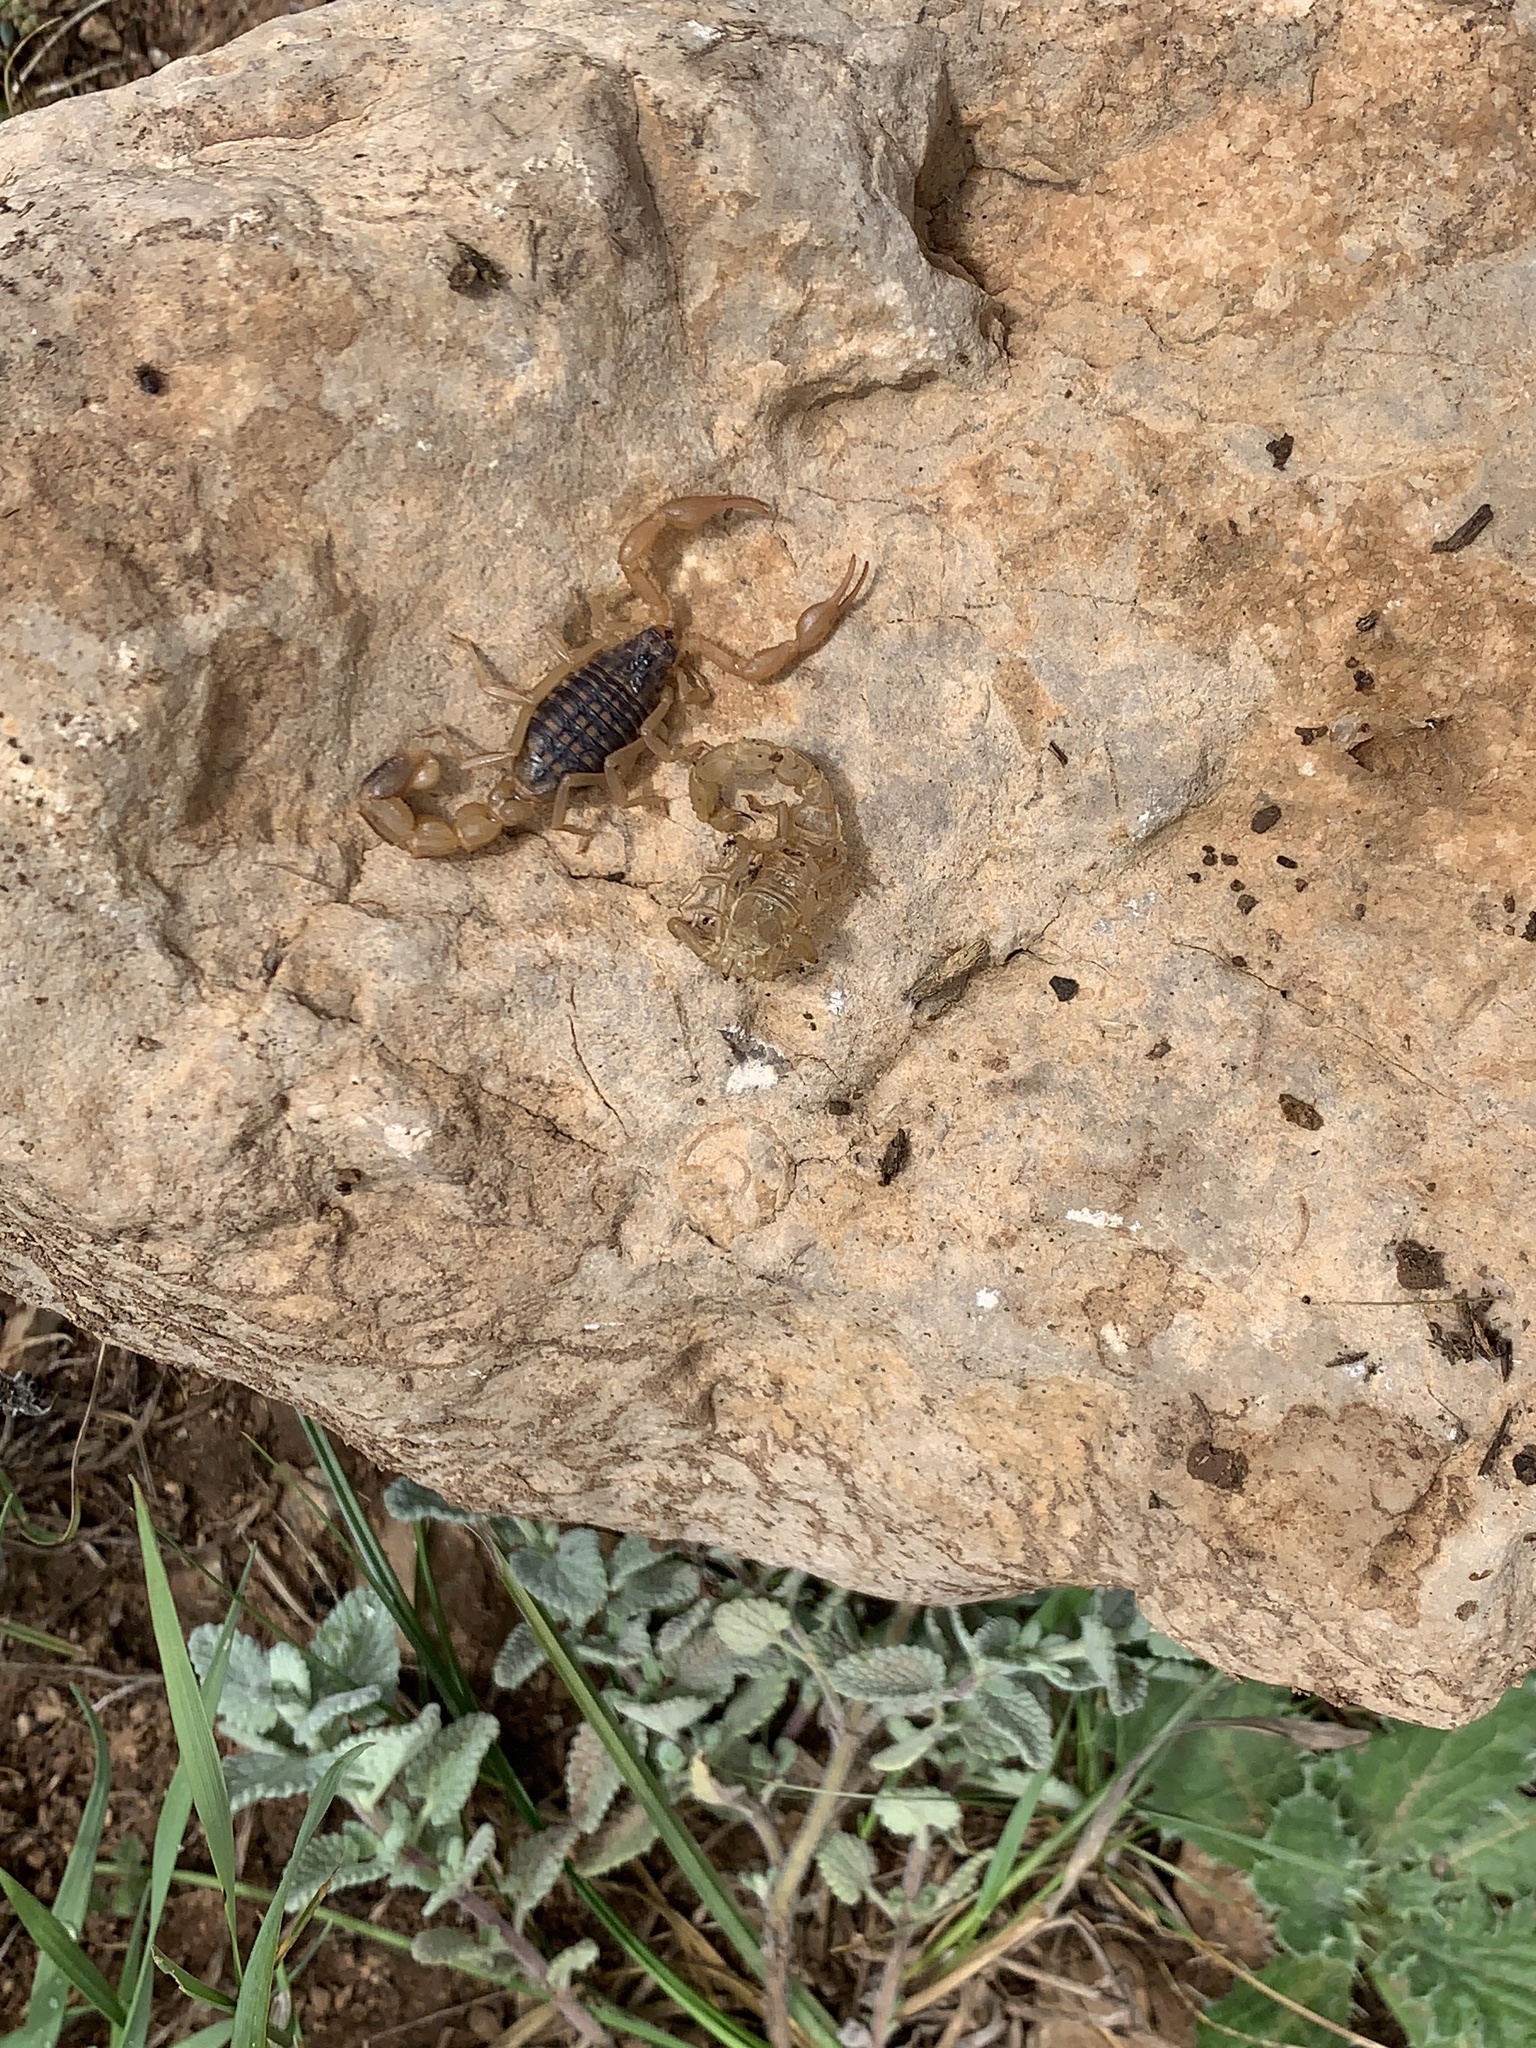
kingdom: Animalia
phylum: Arthropoda
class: Arachnida
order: Scorpiones
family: Buthidae
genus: Mesobuthus
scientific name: Mesobuthus philippovitschi
